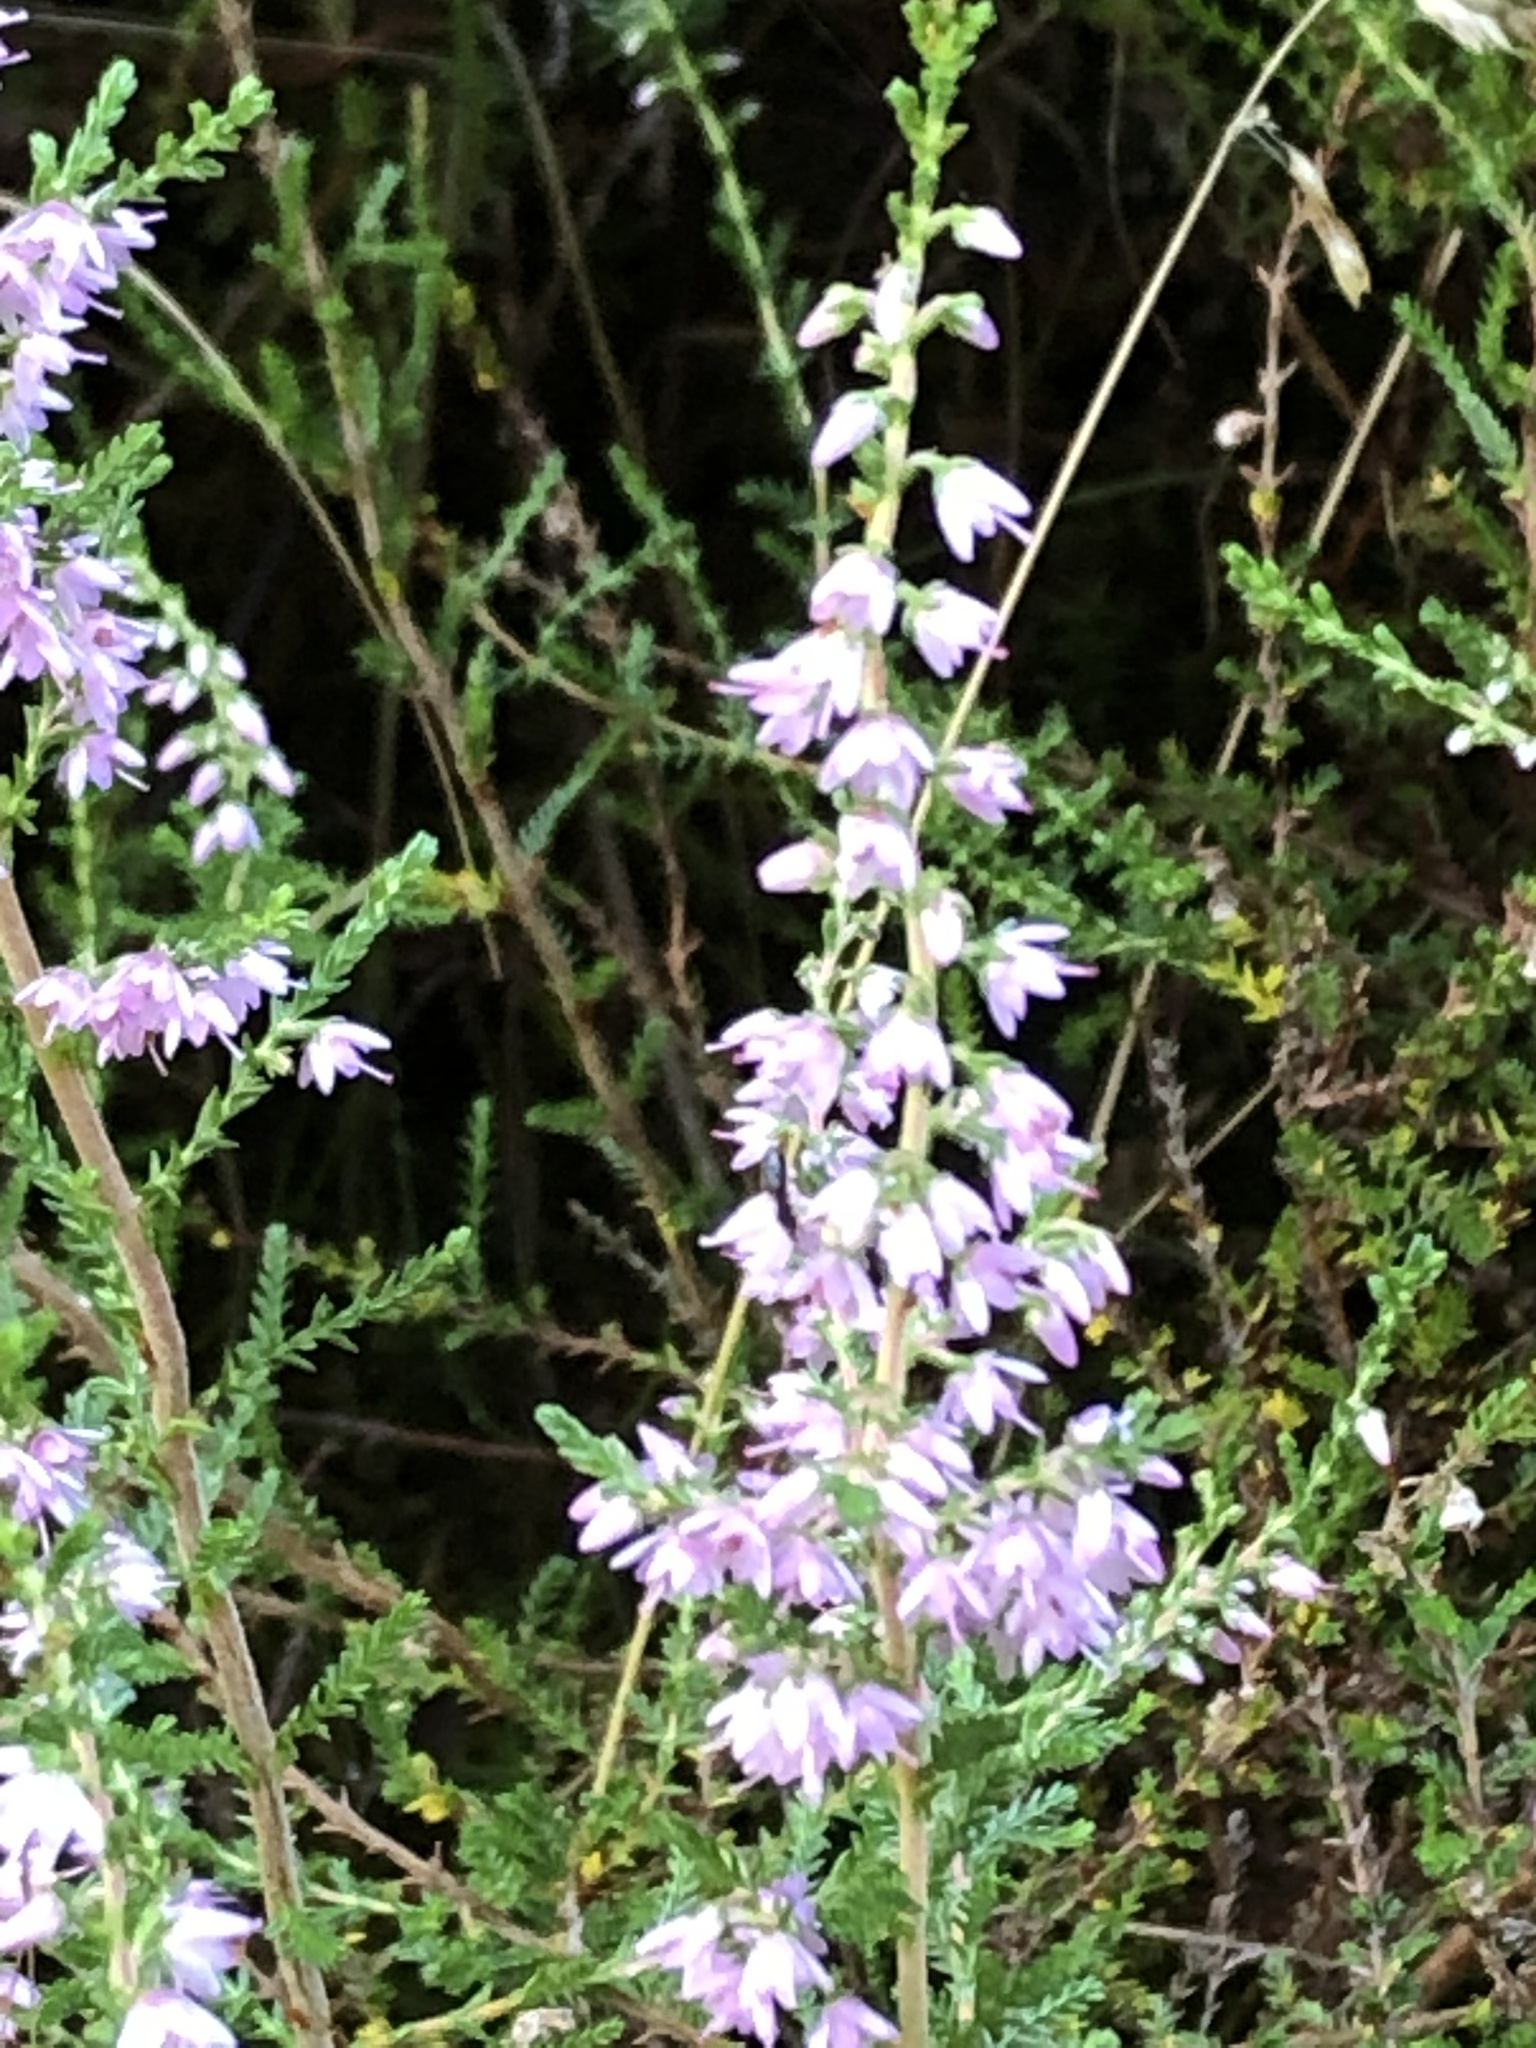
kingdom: Plantae
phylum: Tracheophyta
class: Magnoliopsida
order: Ericales
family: Ericaceae
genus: Calluna
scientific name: Calluna vulgaris
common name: Heather
